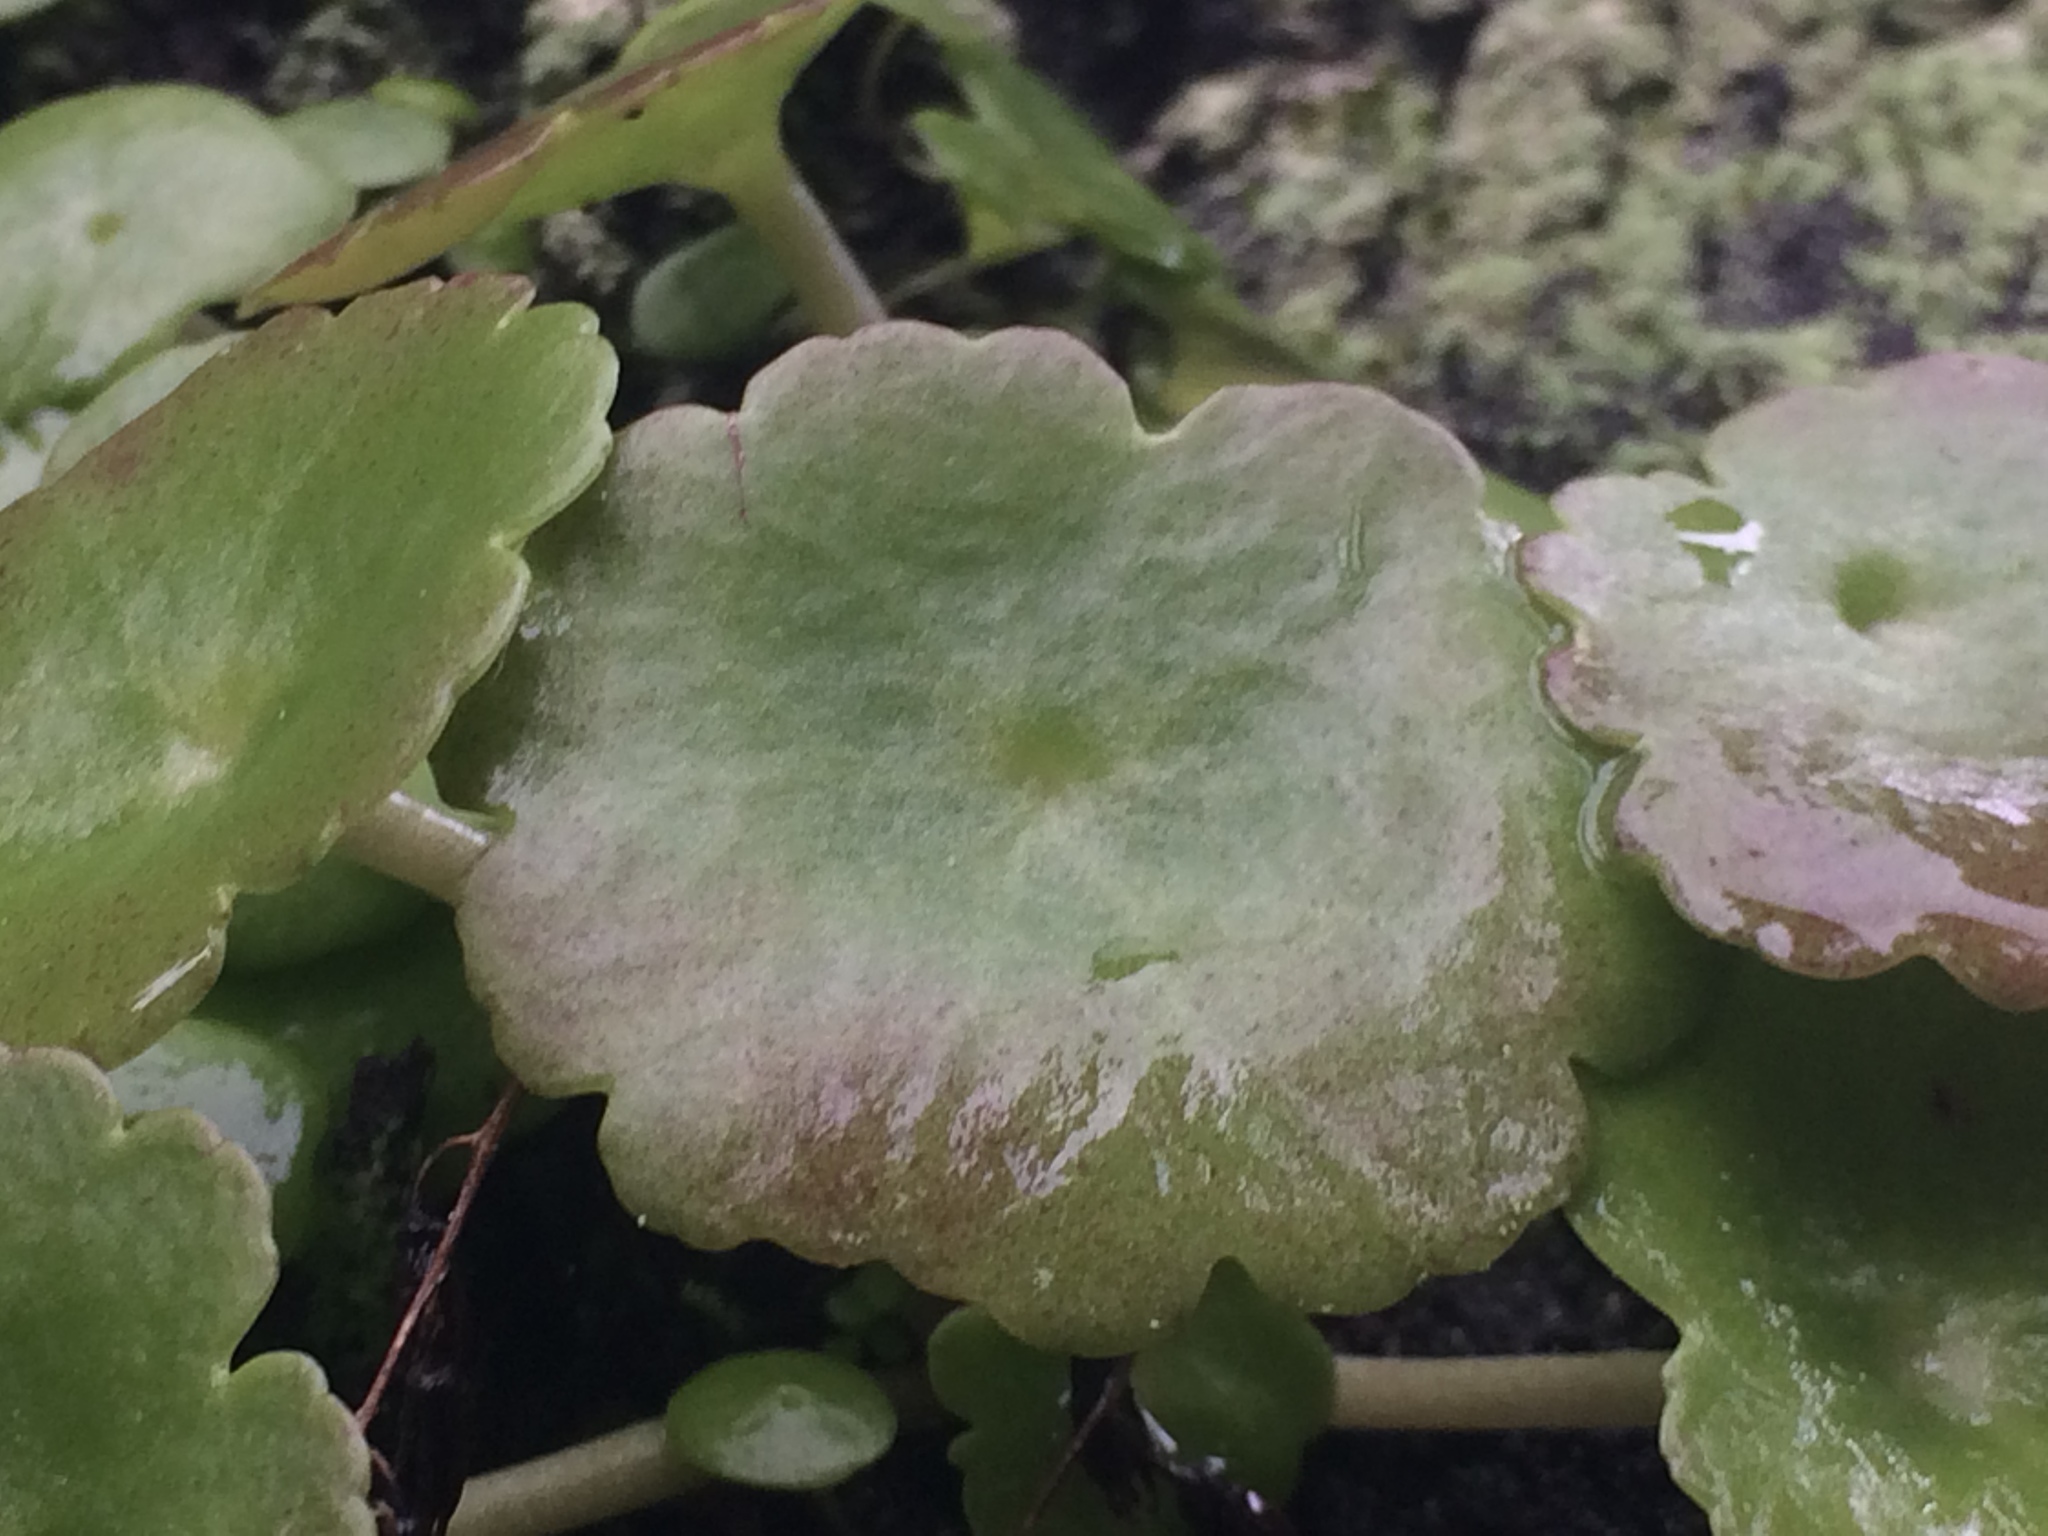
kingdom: Plantae
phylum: Tracheophyta
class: Magnoliopsida
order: Saxifragales
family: Crassulaceae
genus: Umbilicus
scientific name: Umbilicus rupestris
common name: Navelwort
